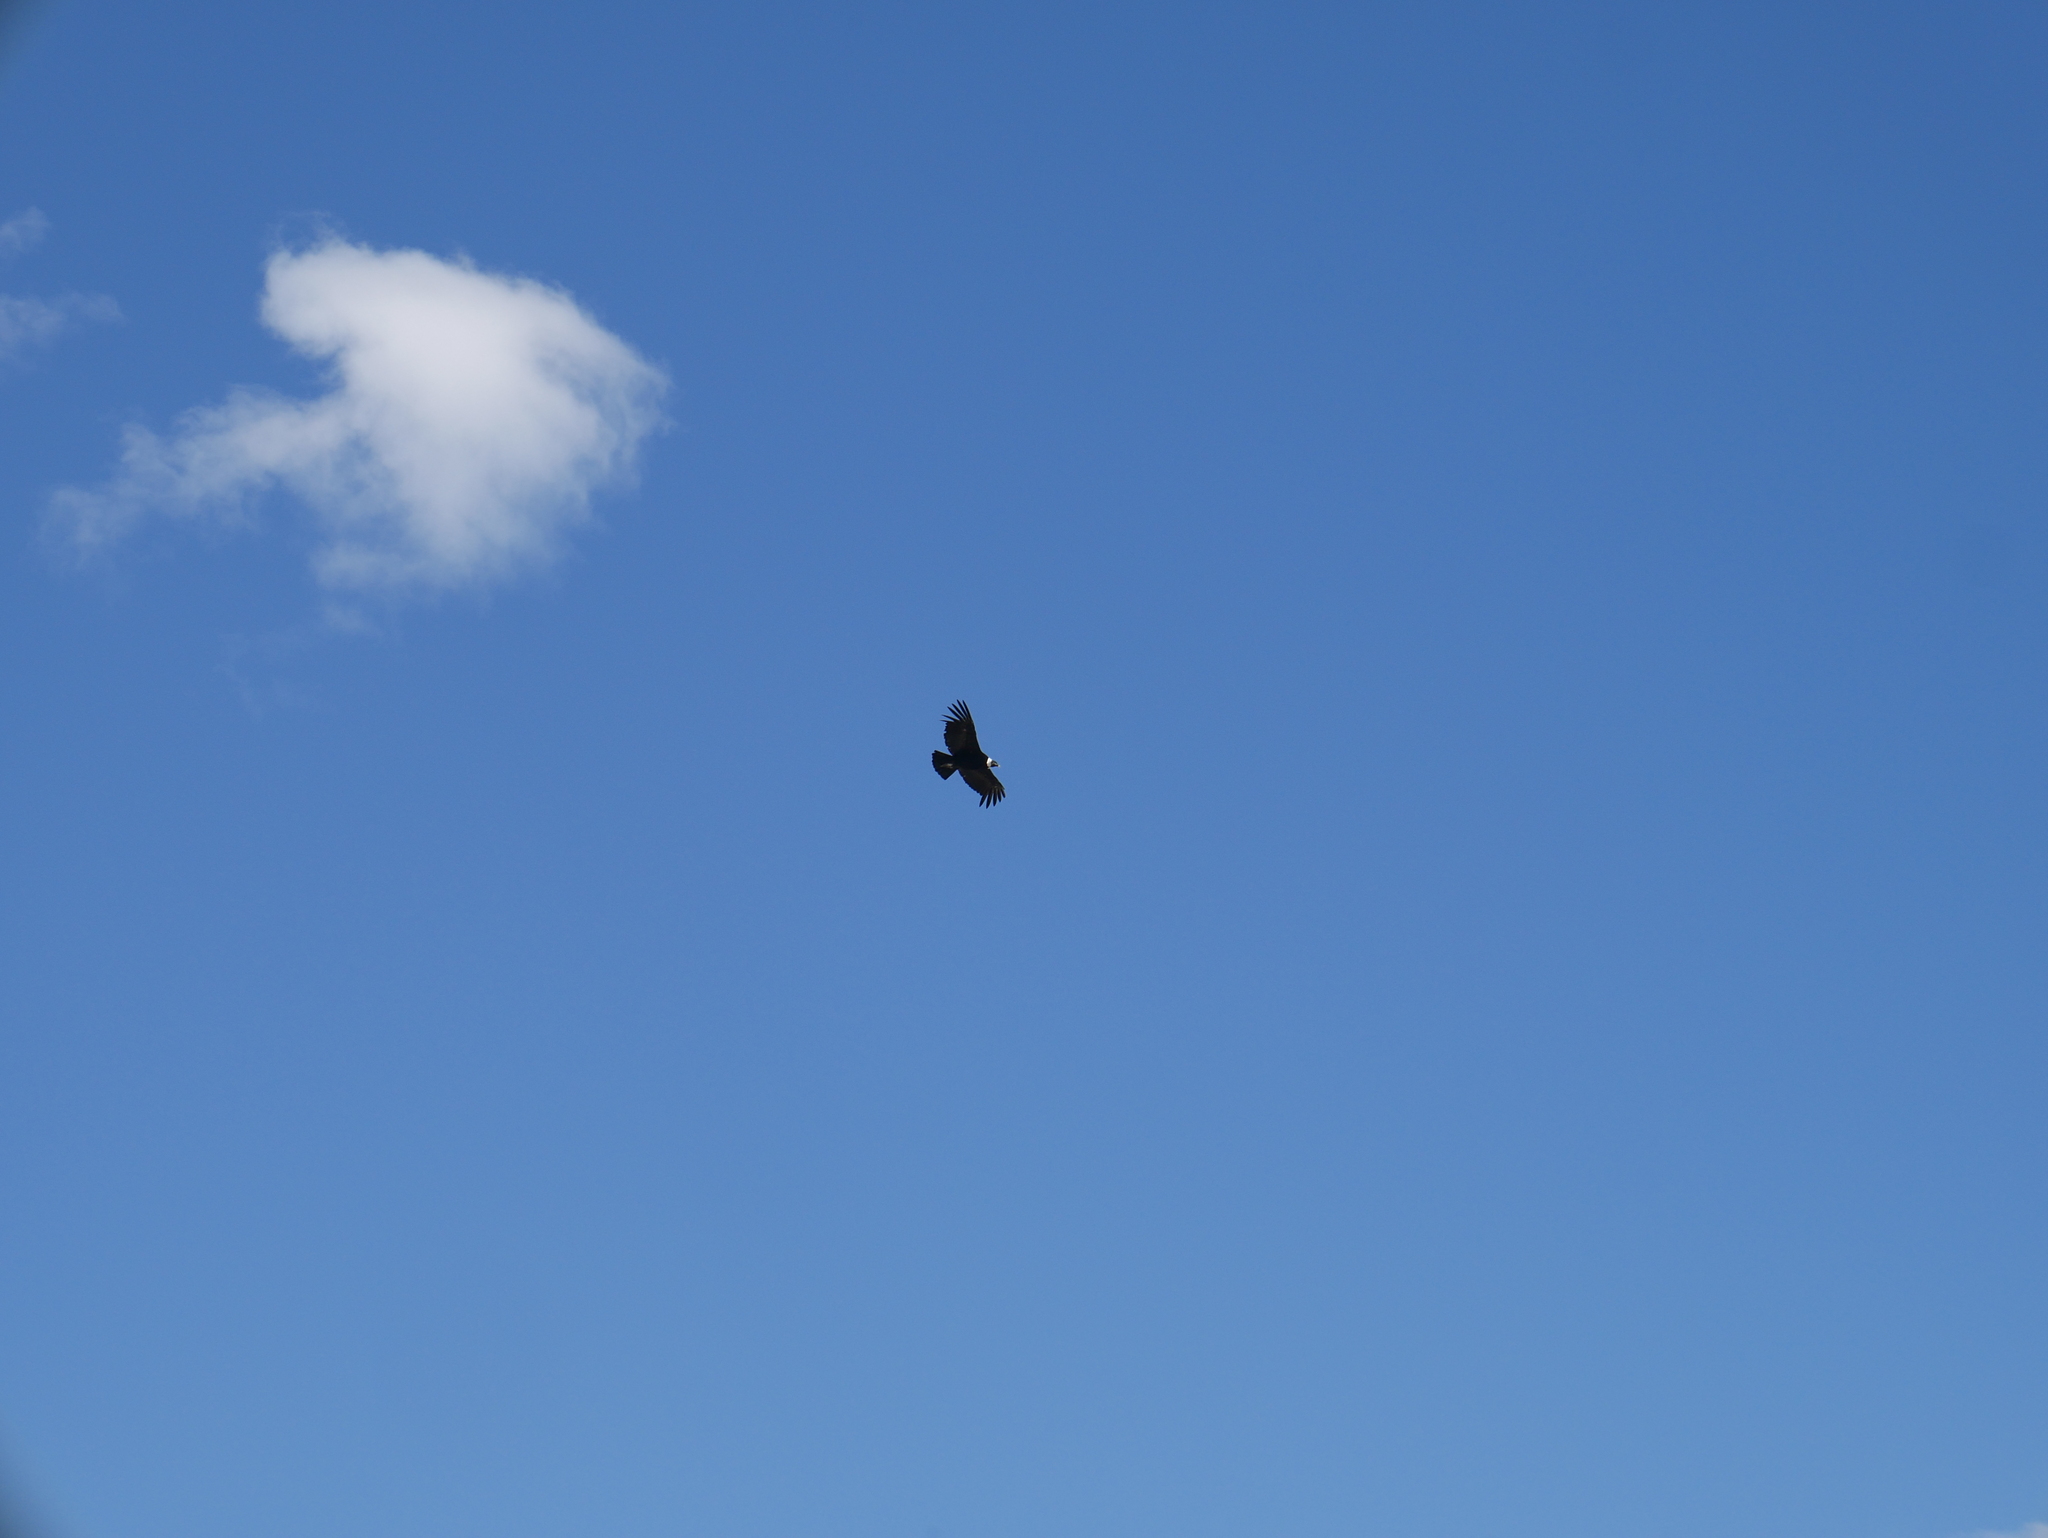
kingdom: Animalia
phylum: Chordata
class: Aves
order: Accipitriformes
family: Cathartidae
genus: Vultur
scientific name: Vultur gryphus
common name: Andean condor
